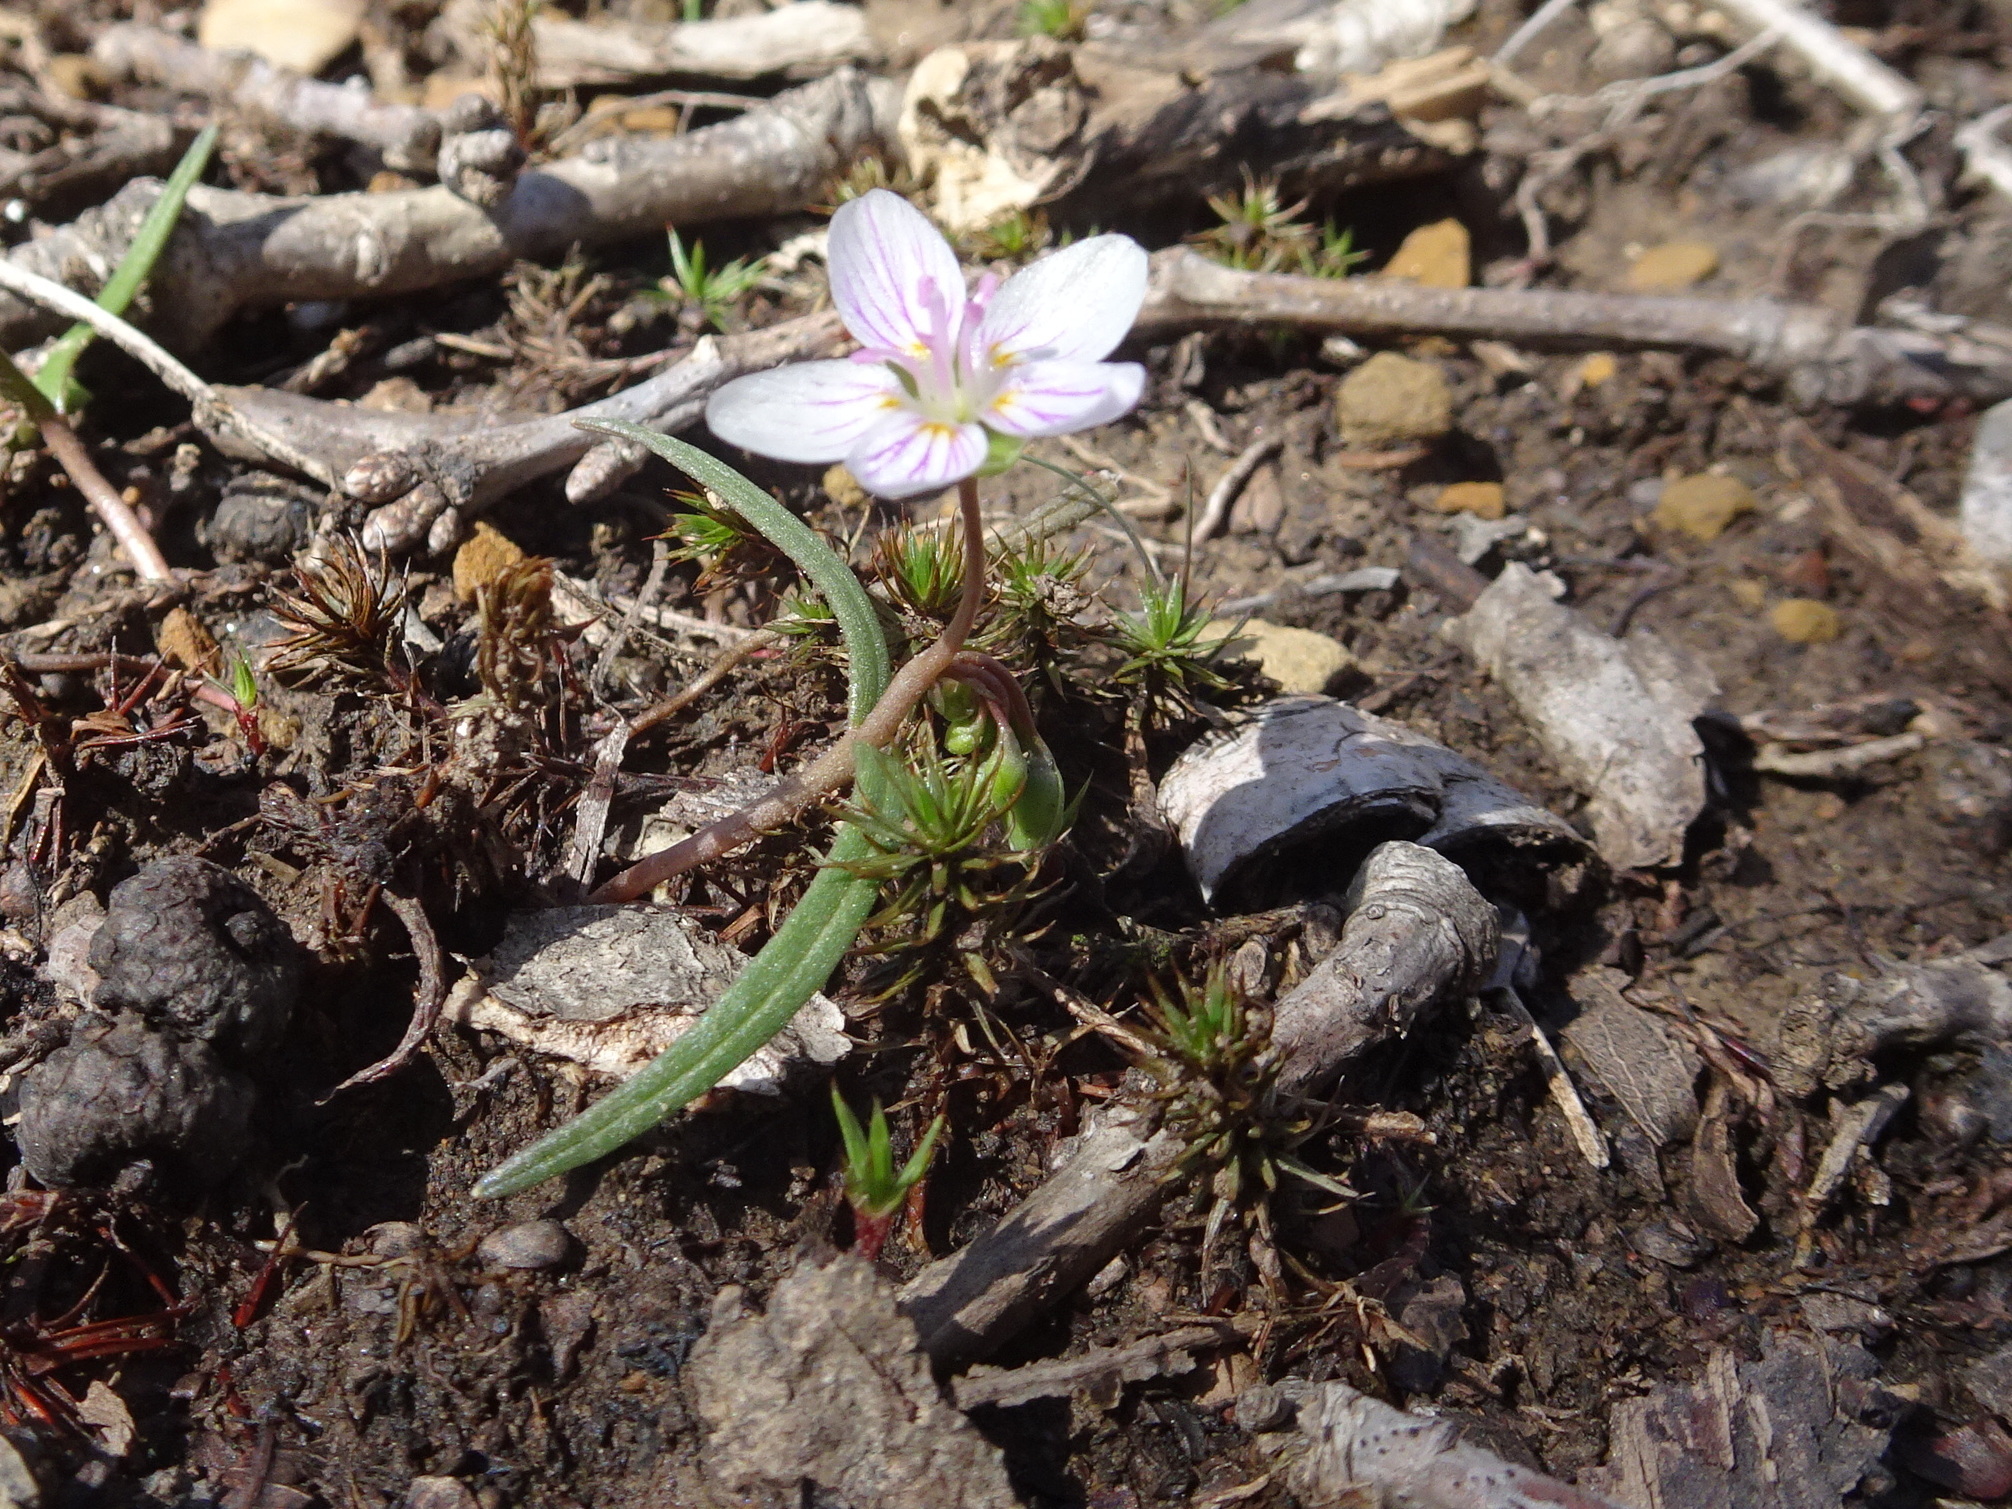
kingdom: Plantae
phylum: Tracheophyta
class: Magnoliopsida
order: Caryophyllales
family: Montiaceae
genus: Claytonia
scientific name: Claytonia virginica
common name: Virginia springbeauty
